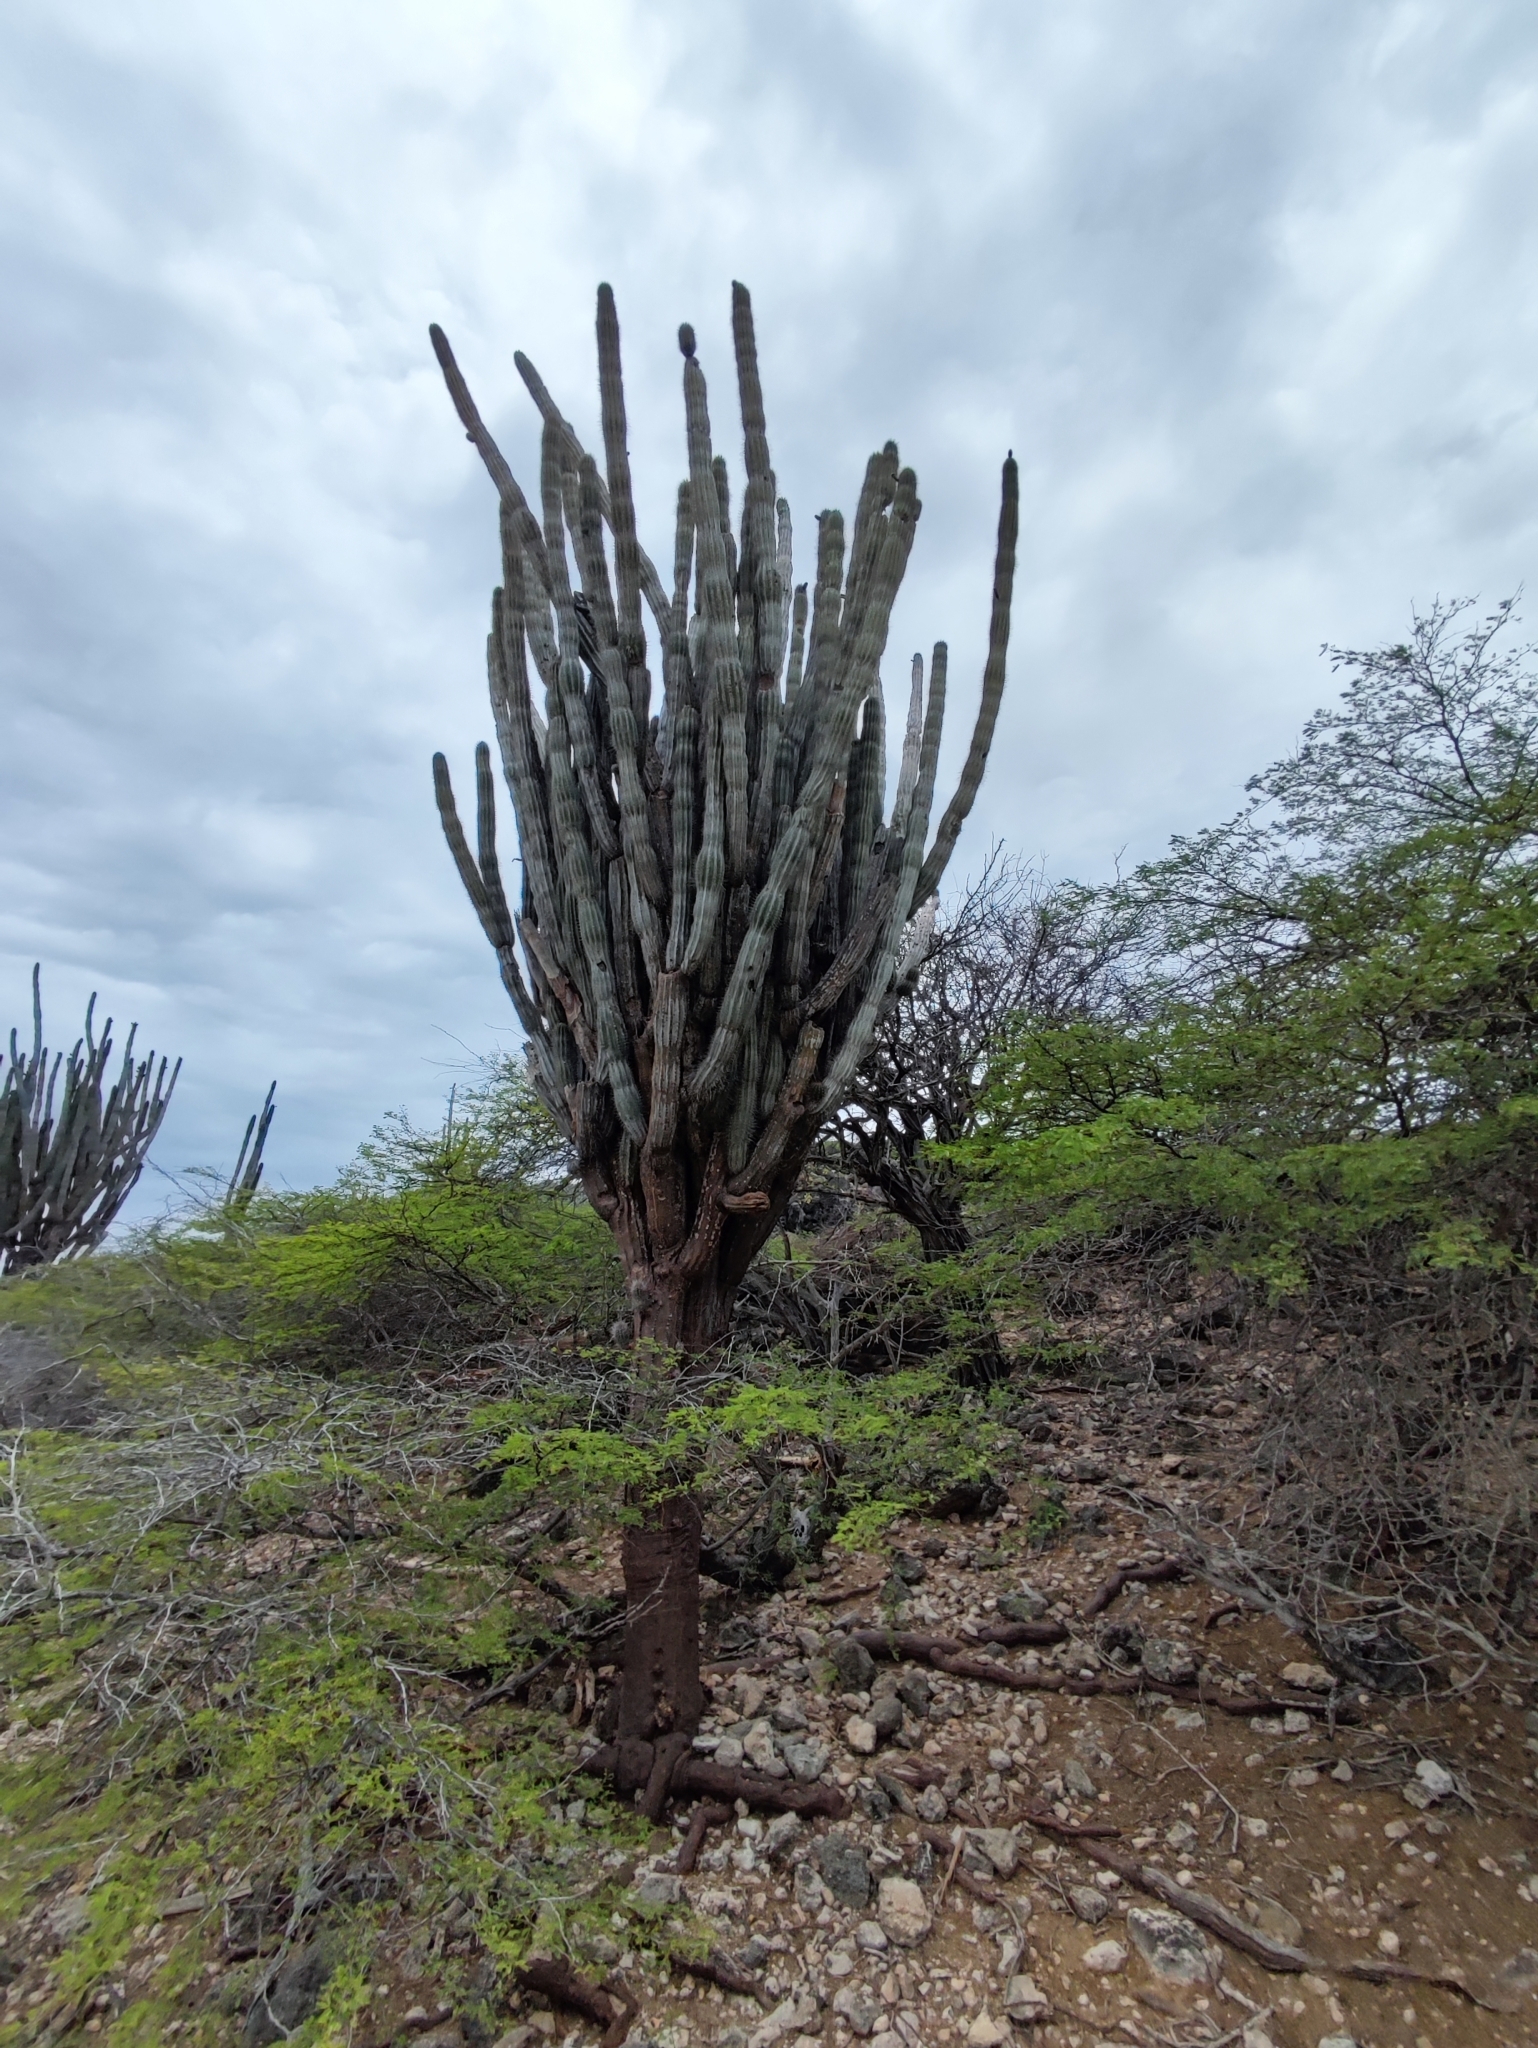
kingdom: Plantae
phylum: Tracheophyta
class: Magnoliopsida
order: Caryophyllales
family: Cactaceae
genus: Cereus
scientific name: Cereus repandus
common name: Sweetpotato cactus
